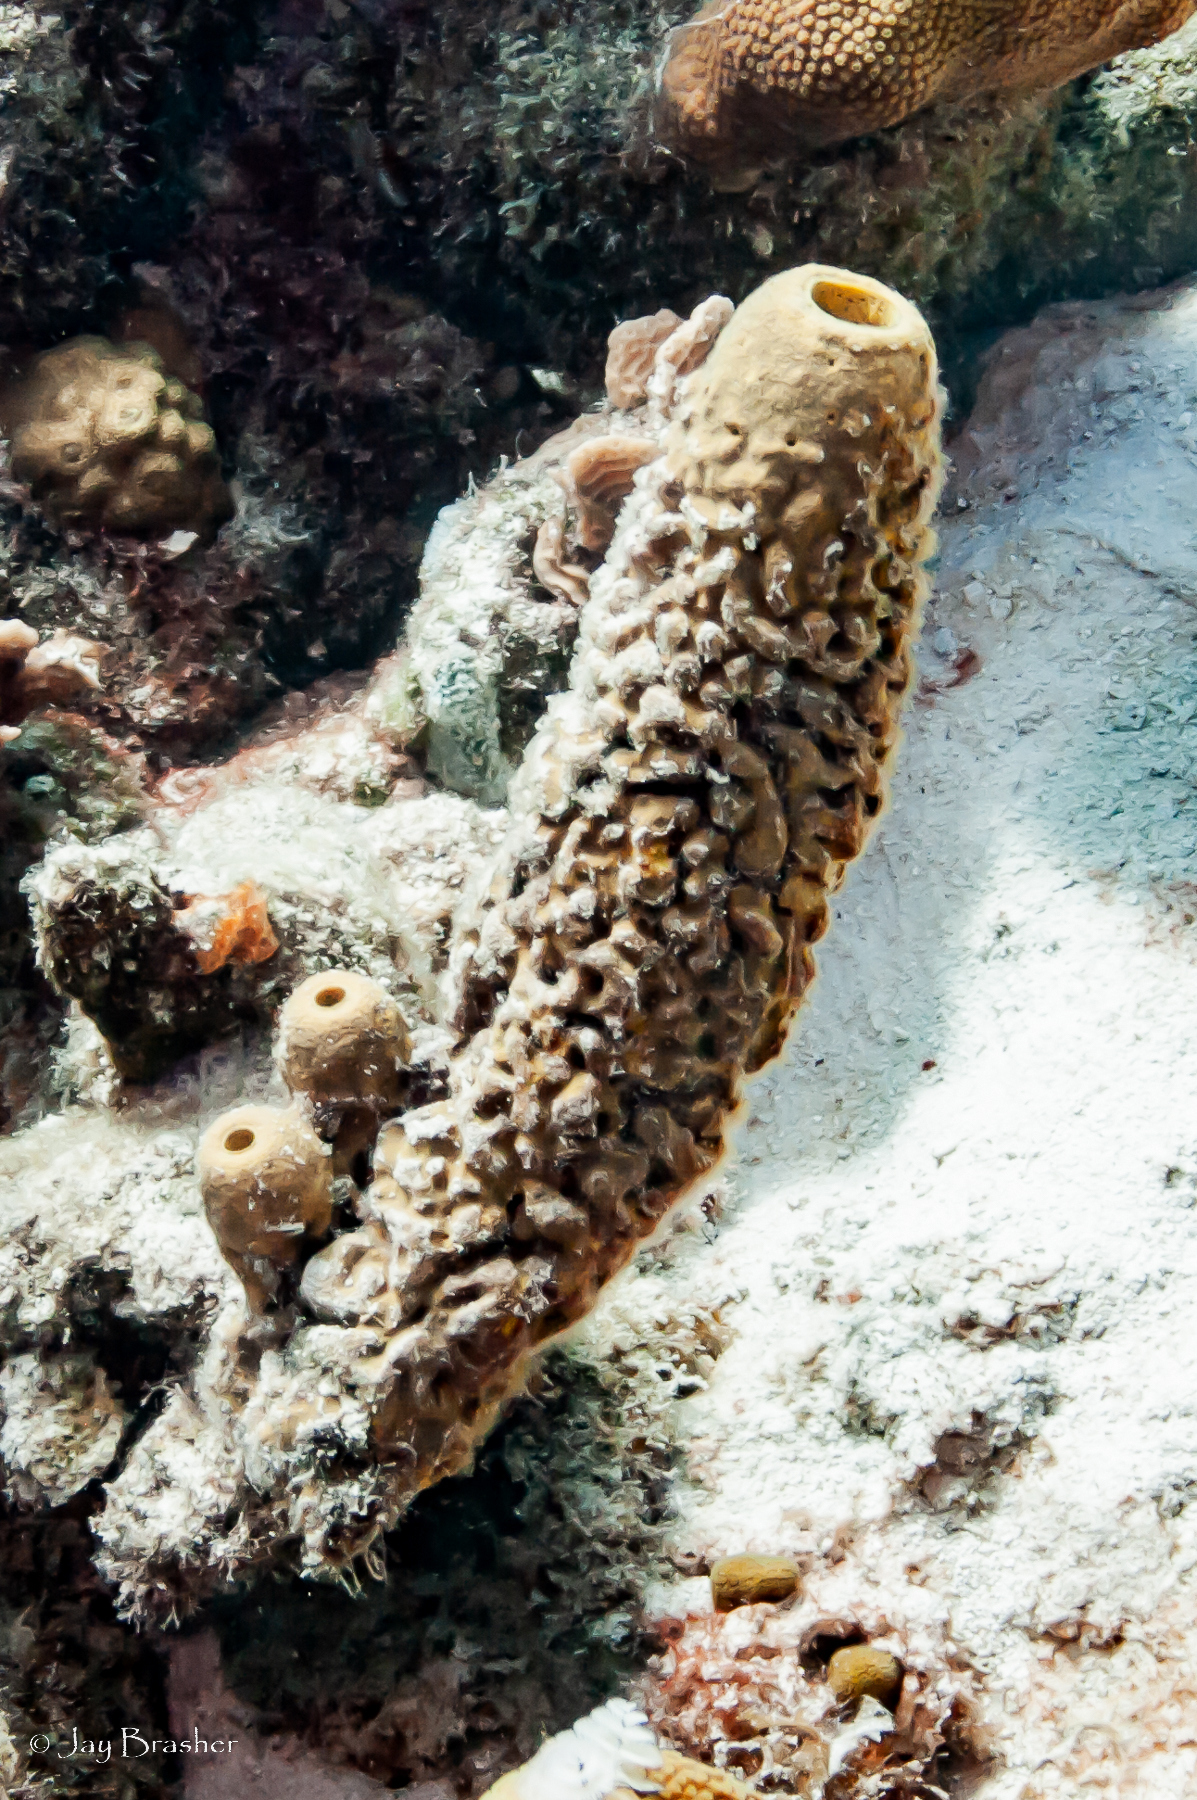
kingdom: Animalia
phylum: Porifera
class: Demospongiae
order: Verongiida
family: Aplysinidae
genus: Aplysina
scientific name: Aplysina archeri
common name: Stove-pipe sponge
